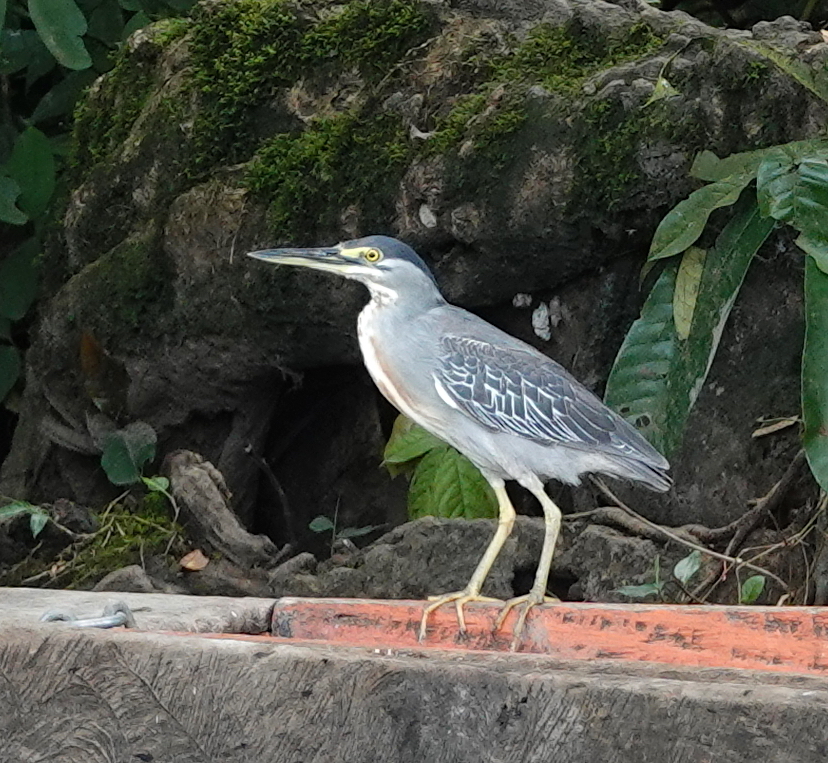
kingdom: Animalia
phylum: Chordata
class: Aves
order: Pelecaniformes
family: Ardeidae
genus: Butorides
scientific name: Butorides striata
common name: Striated heron
